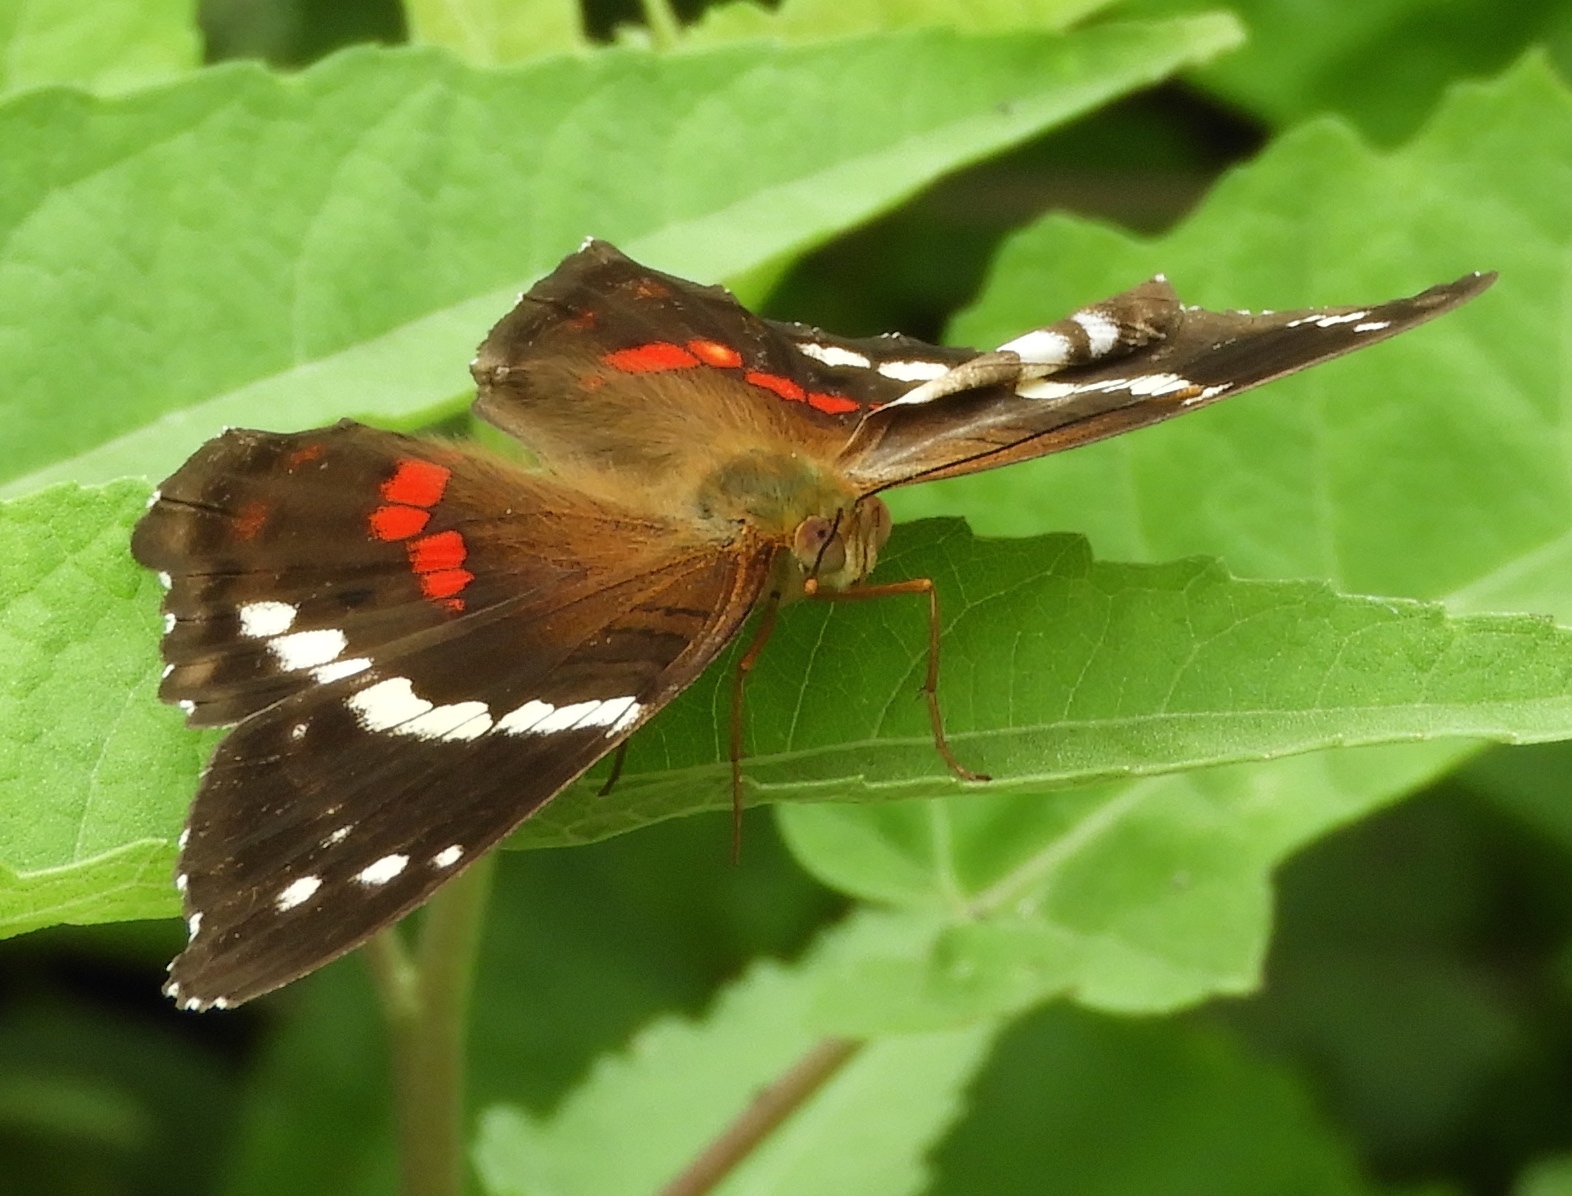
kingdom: Animalia
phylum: Arthropoda
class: Insecta
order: Lepidoptera
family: Nymphalidae
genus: Anartia
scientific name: Anartia fatima
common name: Banded peacock
